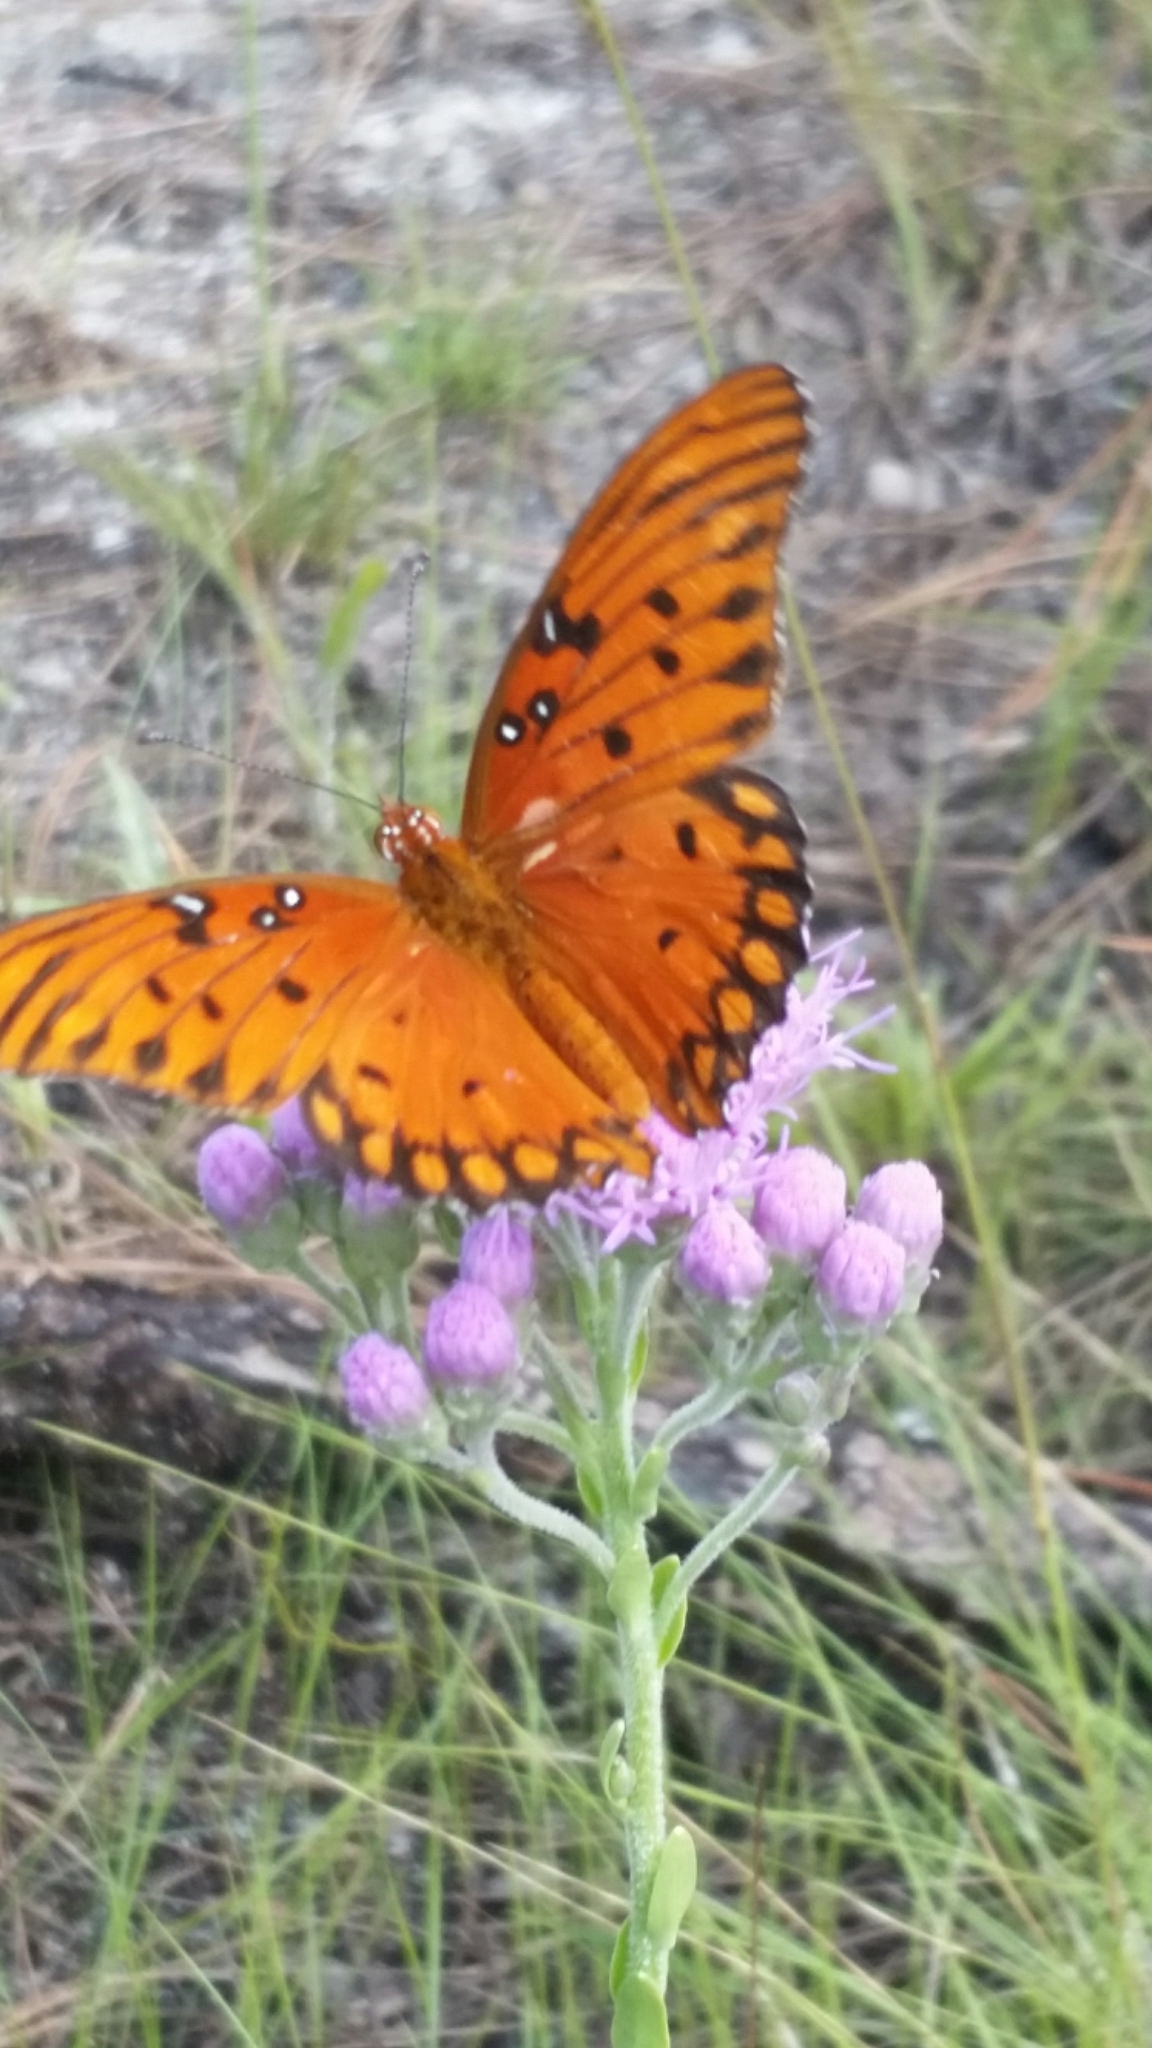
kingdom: Animalia
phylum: Arthropoda
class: Insecta
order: Lepidoptera
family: Nymphalidae
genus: Dione
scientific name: Dione vanillae
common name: Gulf fritillary
